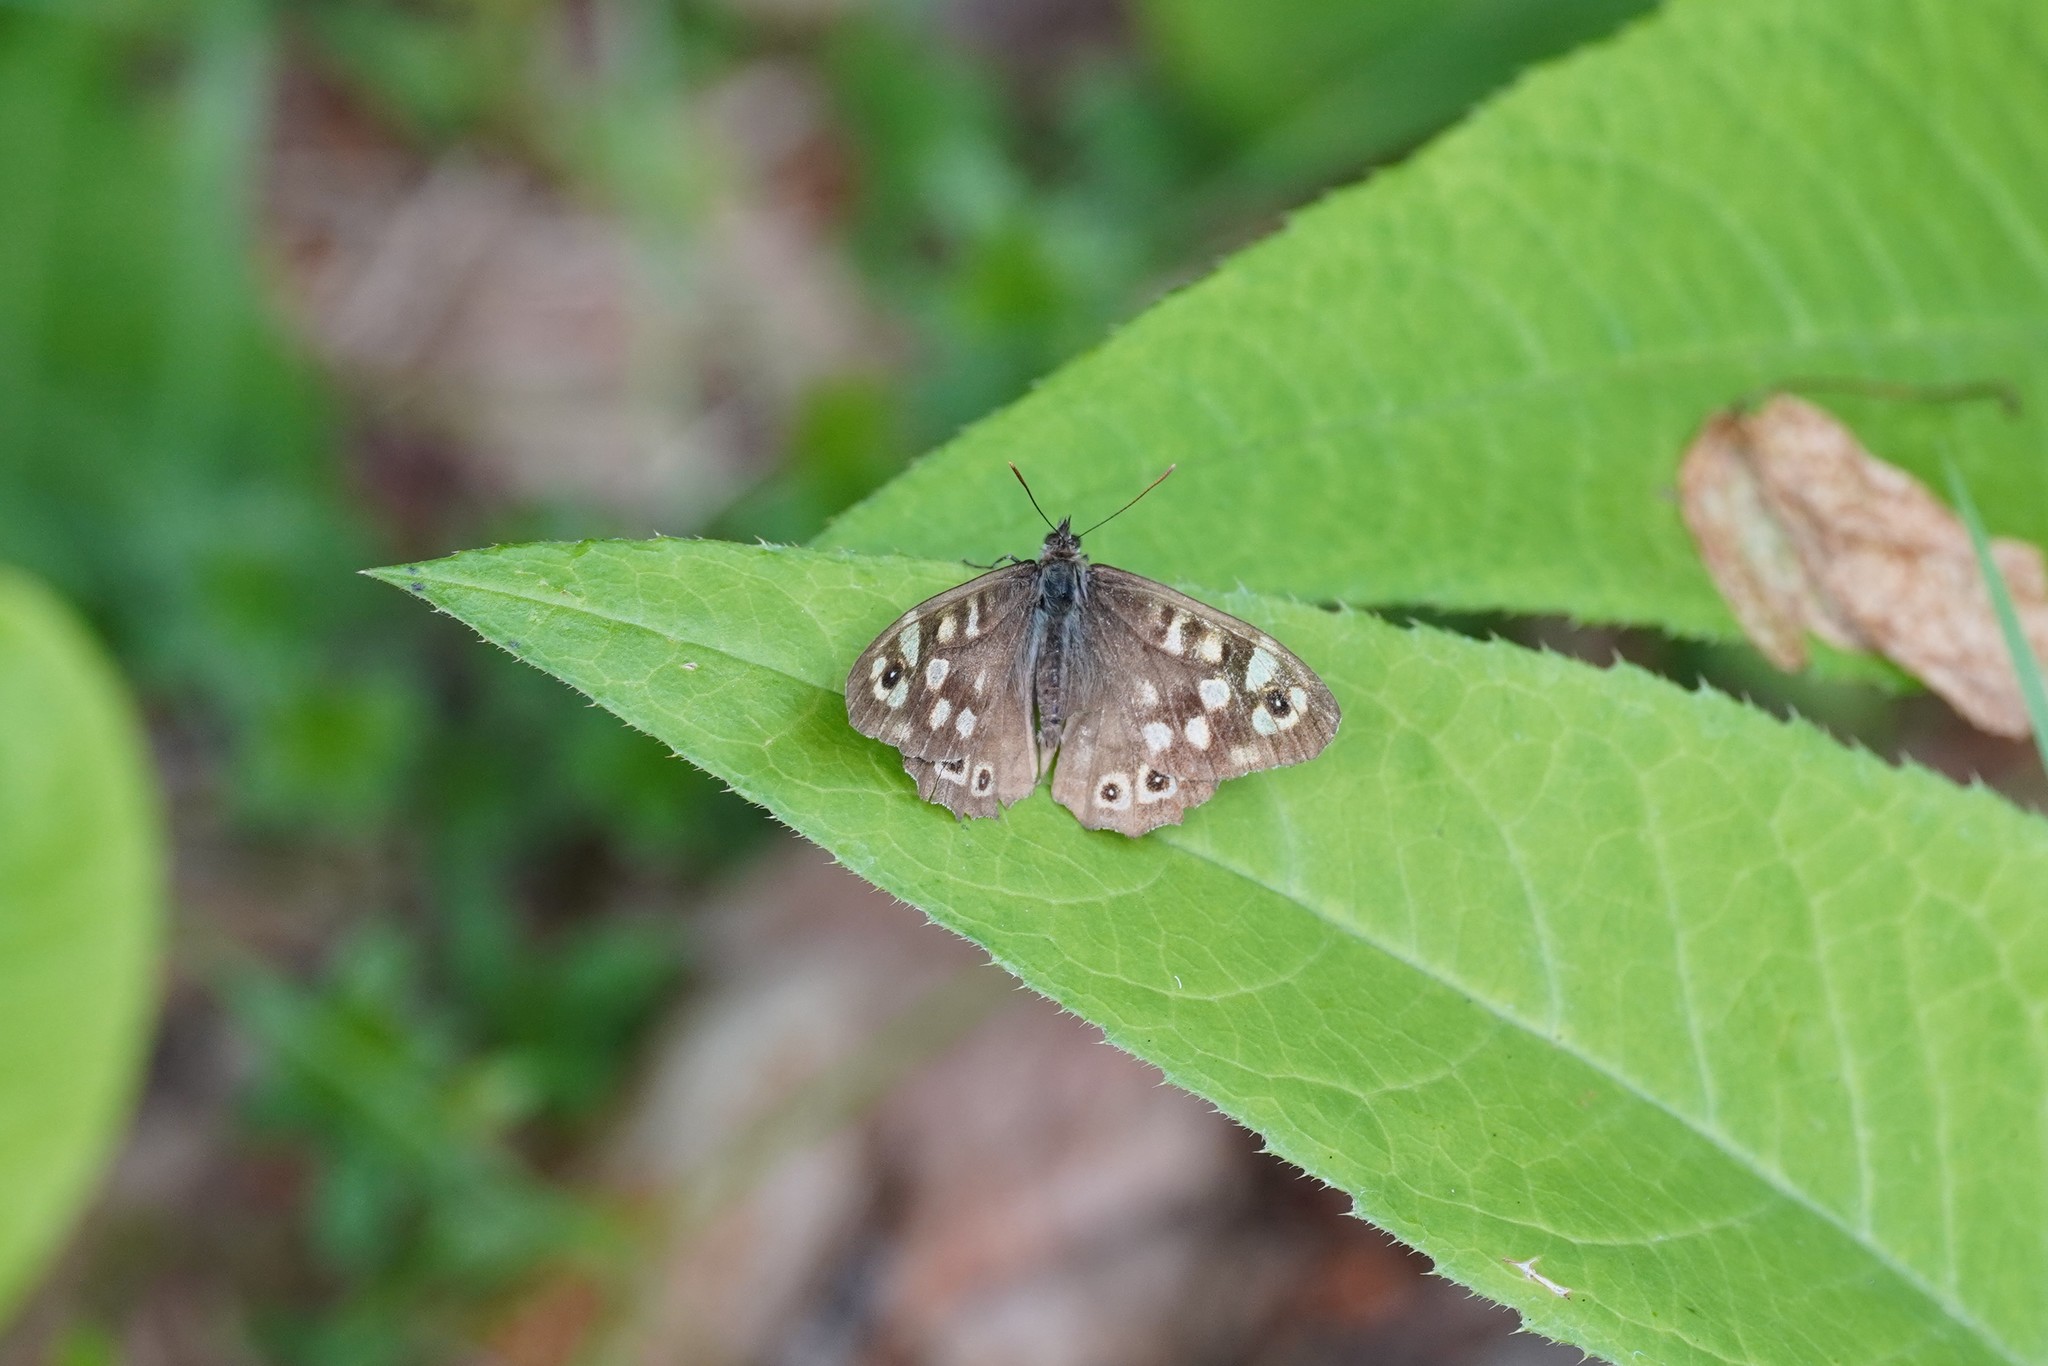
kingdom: Animalia
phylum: Arthropoda
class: Insecta
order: Lepidoptera
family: Nymphalidae
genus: Pararge
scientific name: Pararge aegeria
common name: Speckled wood
